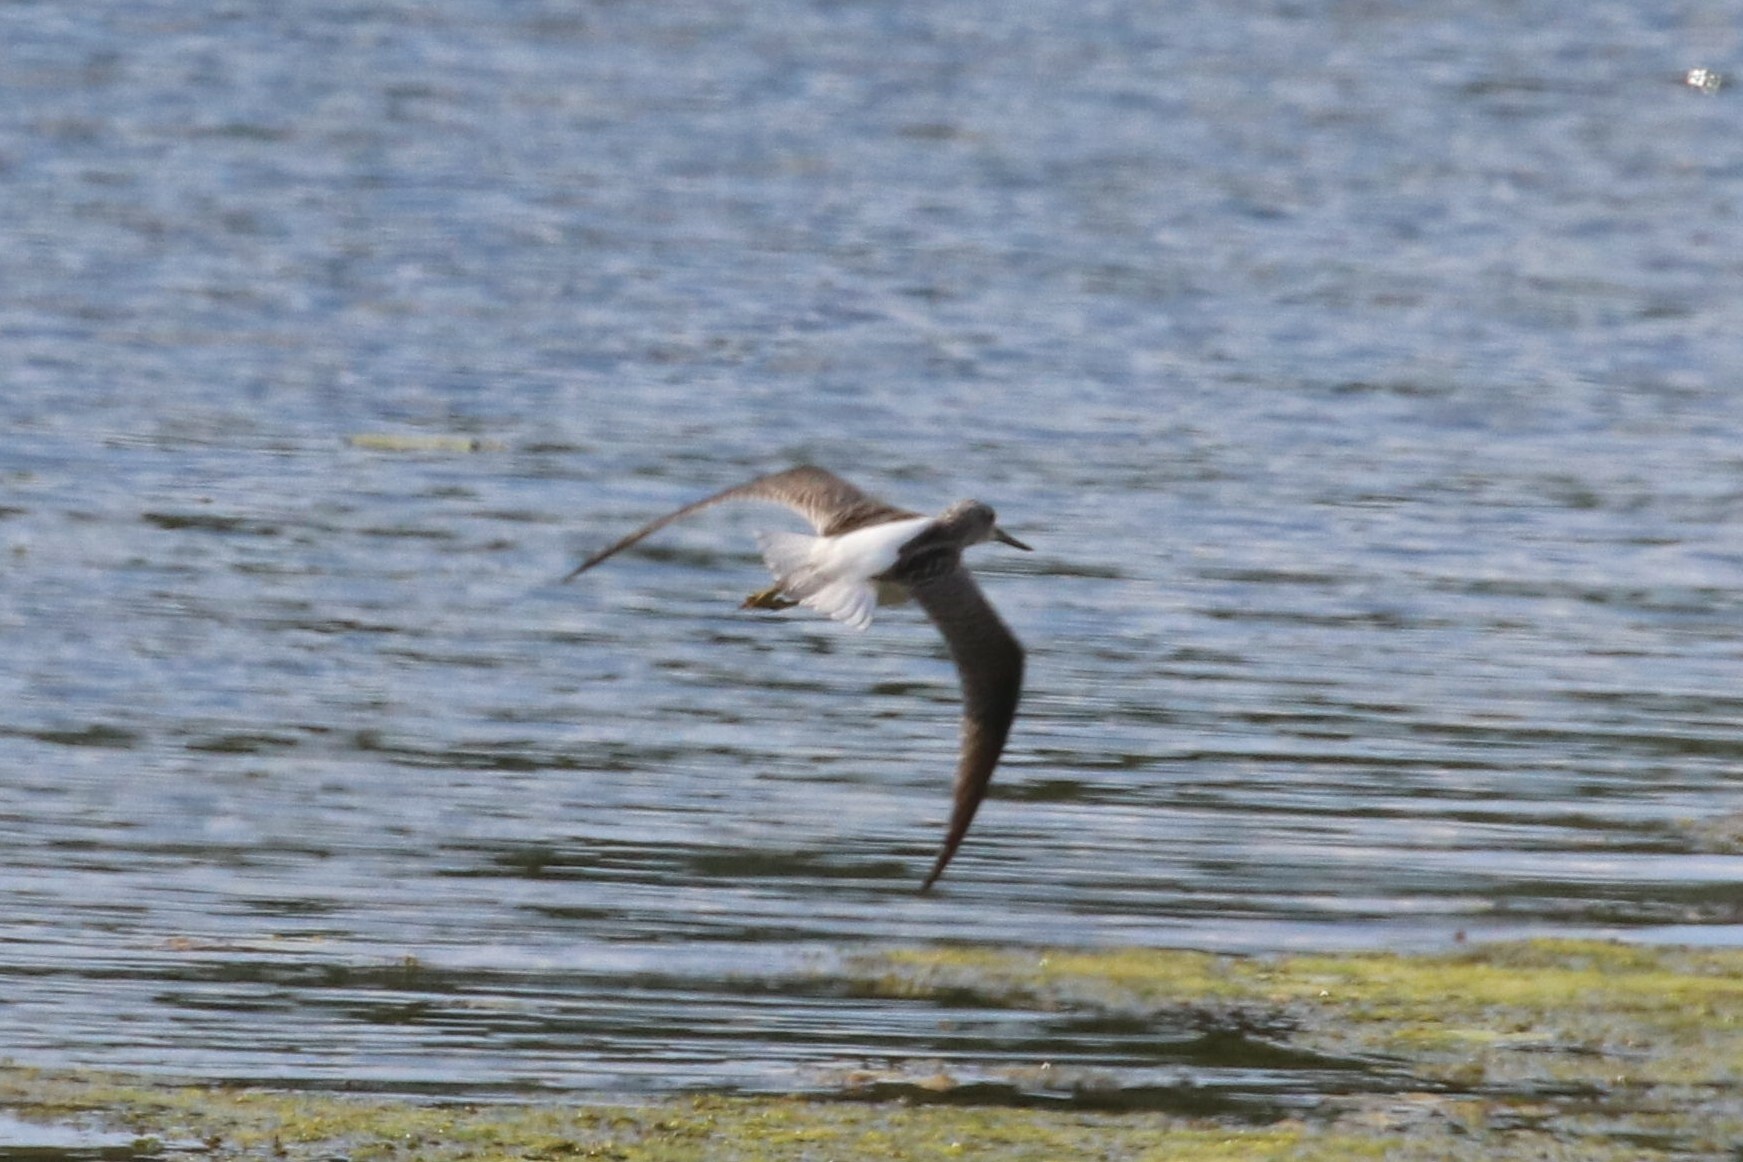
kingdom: Animalia
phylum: Chordata
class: Aves
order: Charadriiformes
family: Scolopacidae
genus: Tringa
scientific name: Tringa nebularia
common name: Common greenshank
